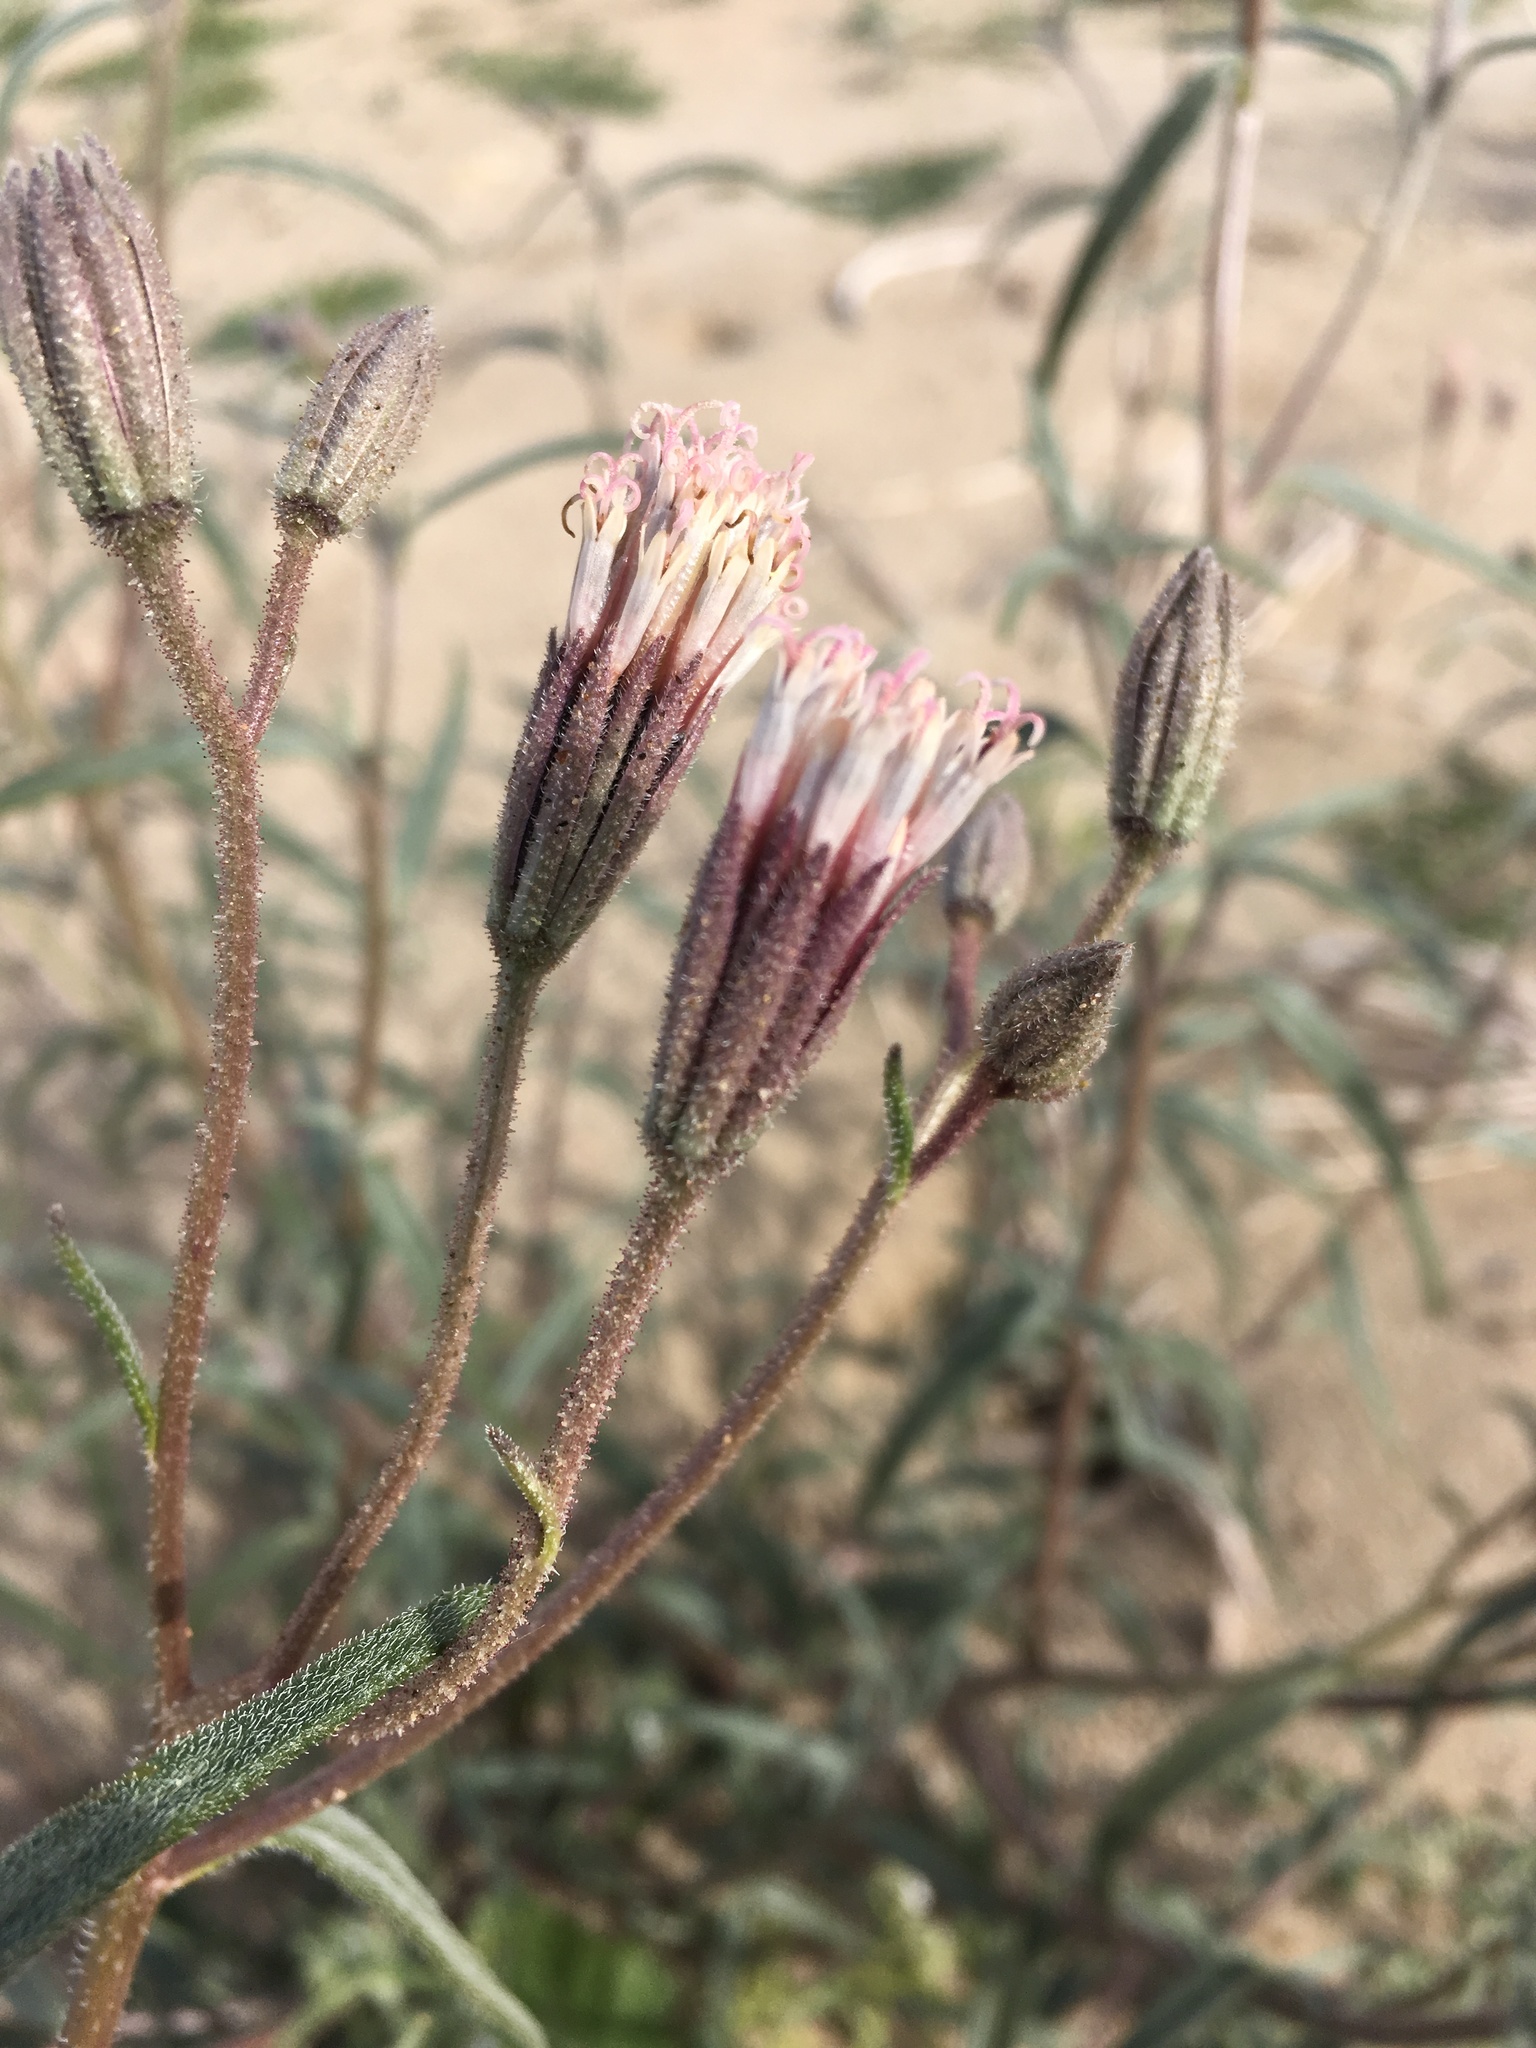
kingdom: Plantae
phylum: Tracheophyta
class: Magnoliopsida
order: Asterales
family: Asteraceae
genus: Palafoxia
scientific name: Palafoxia arida
